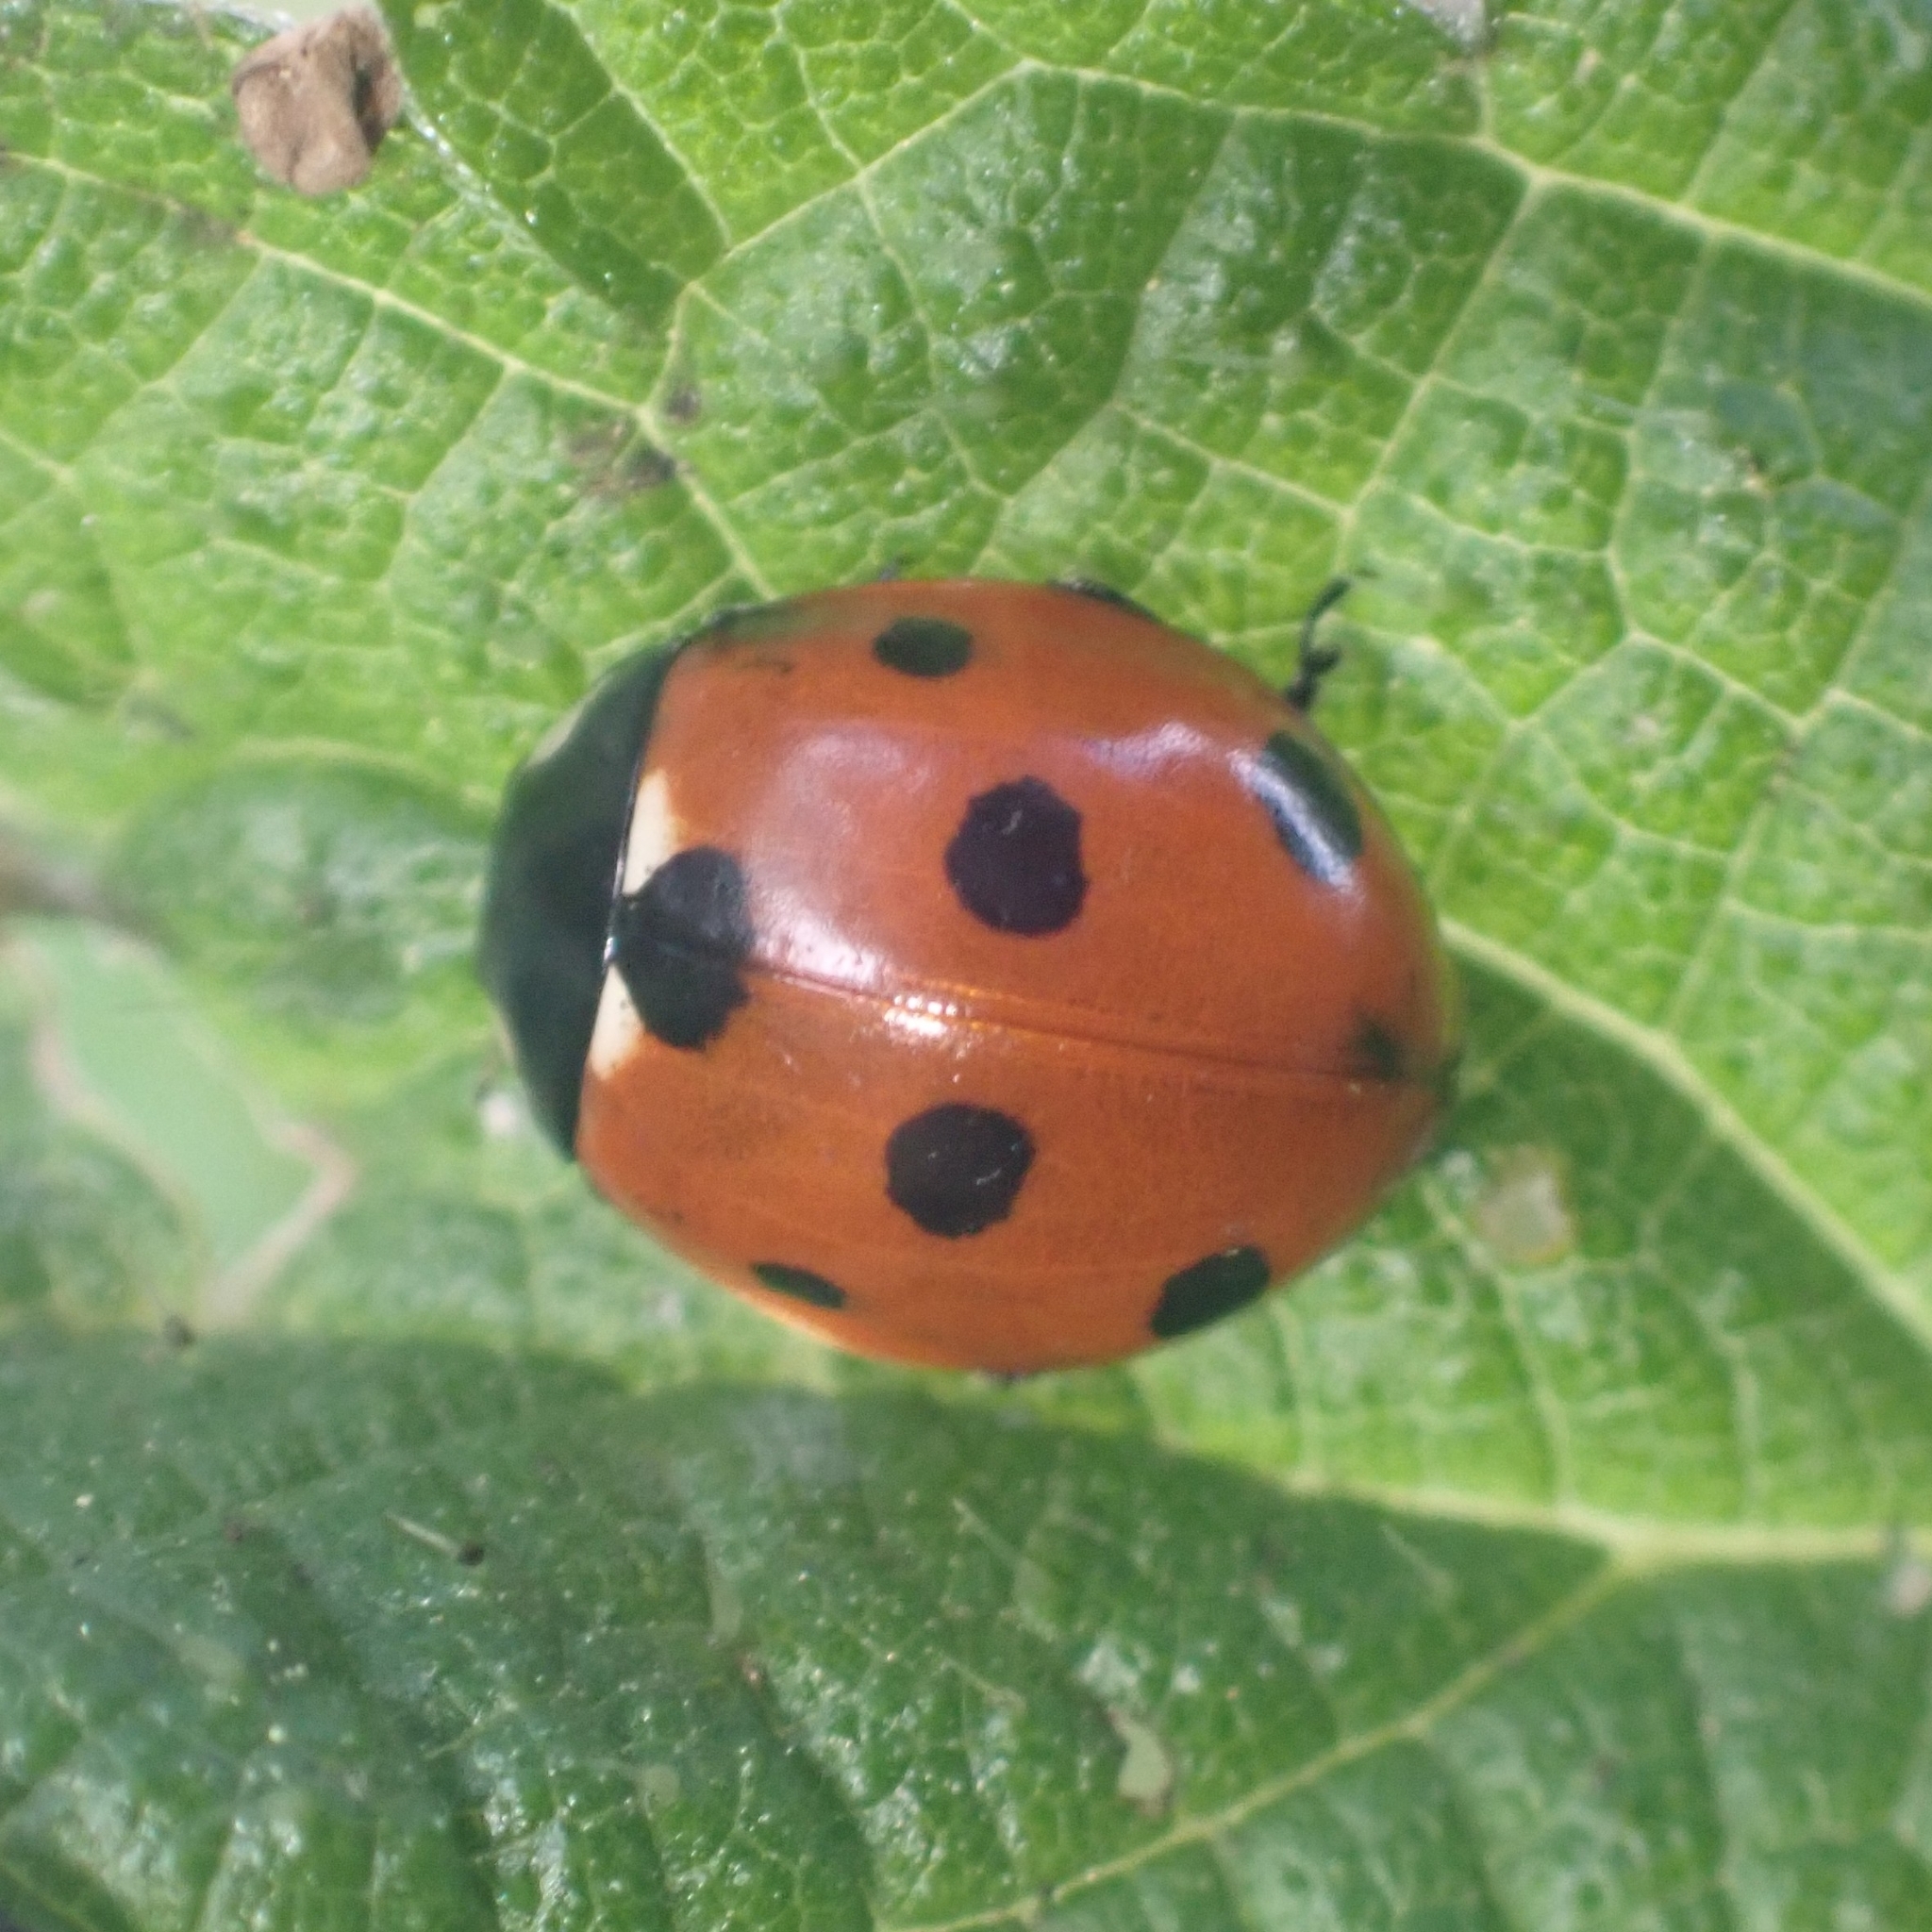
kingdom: Animalia
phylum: Arthropoda
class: Insecta
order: Coleoptera
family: Coccinellidae
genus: Coccinella
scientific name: Coccinella septempunctata
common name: Sevenspotted lady beetle
